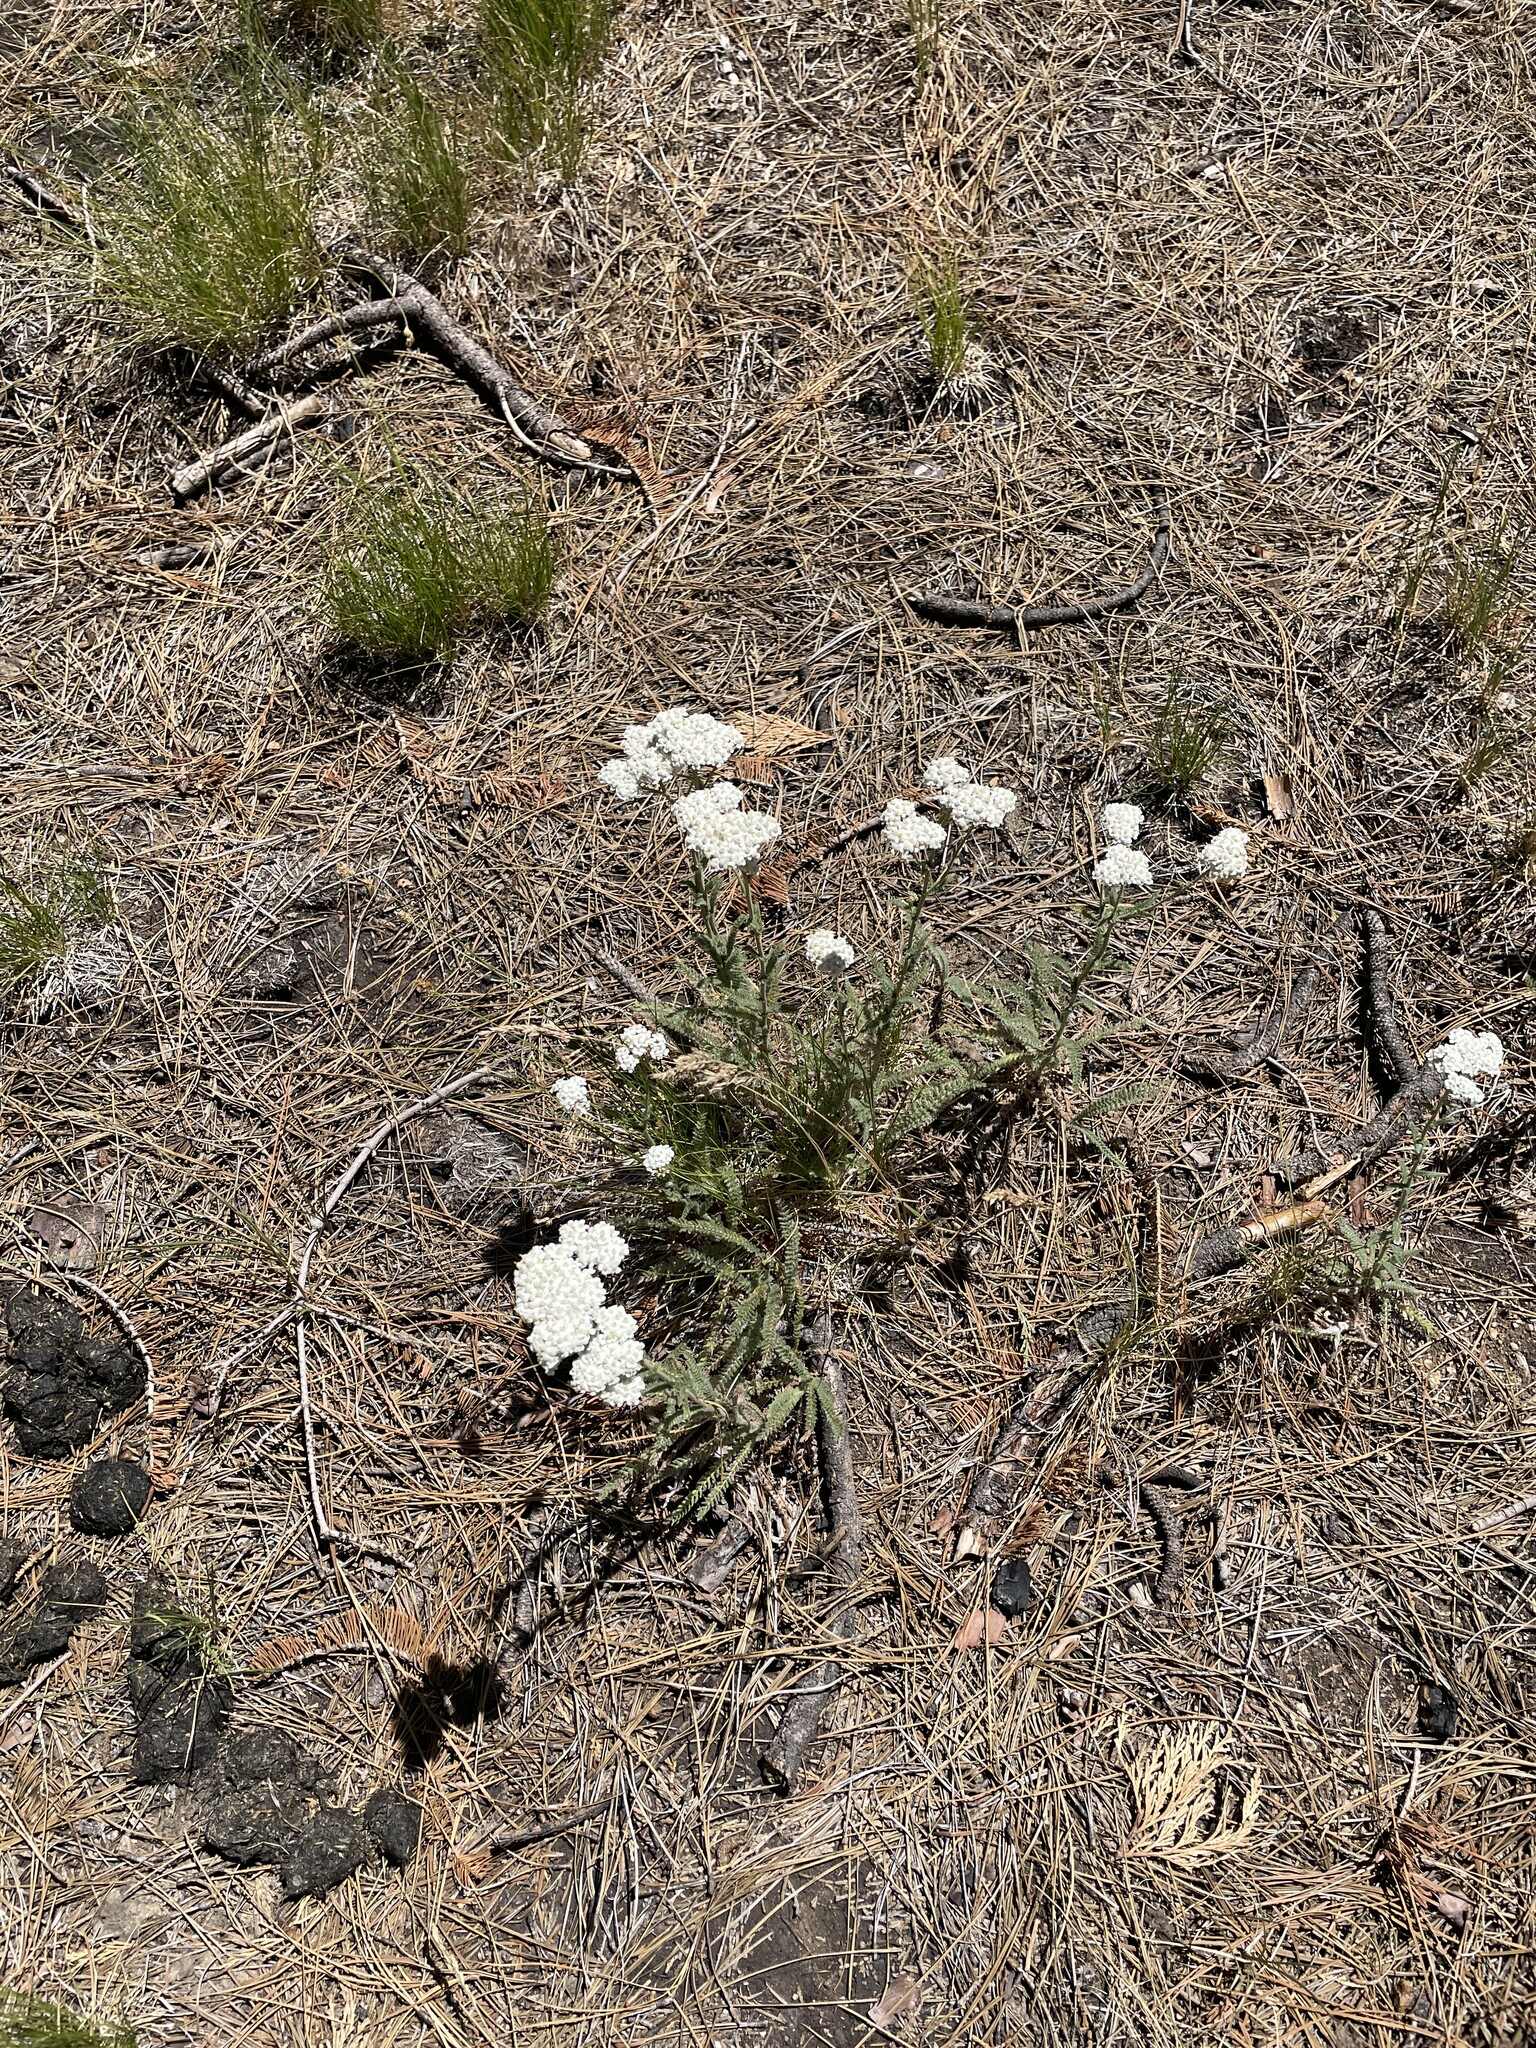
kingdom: Plantae
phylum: Tracheophyta
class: Magnoliopsida
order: Asterales
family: Asteraceae
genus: Achillea
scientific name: Achillea millefolium
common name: Yarrow
